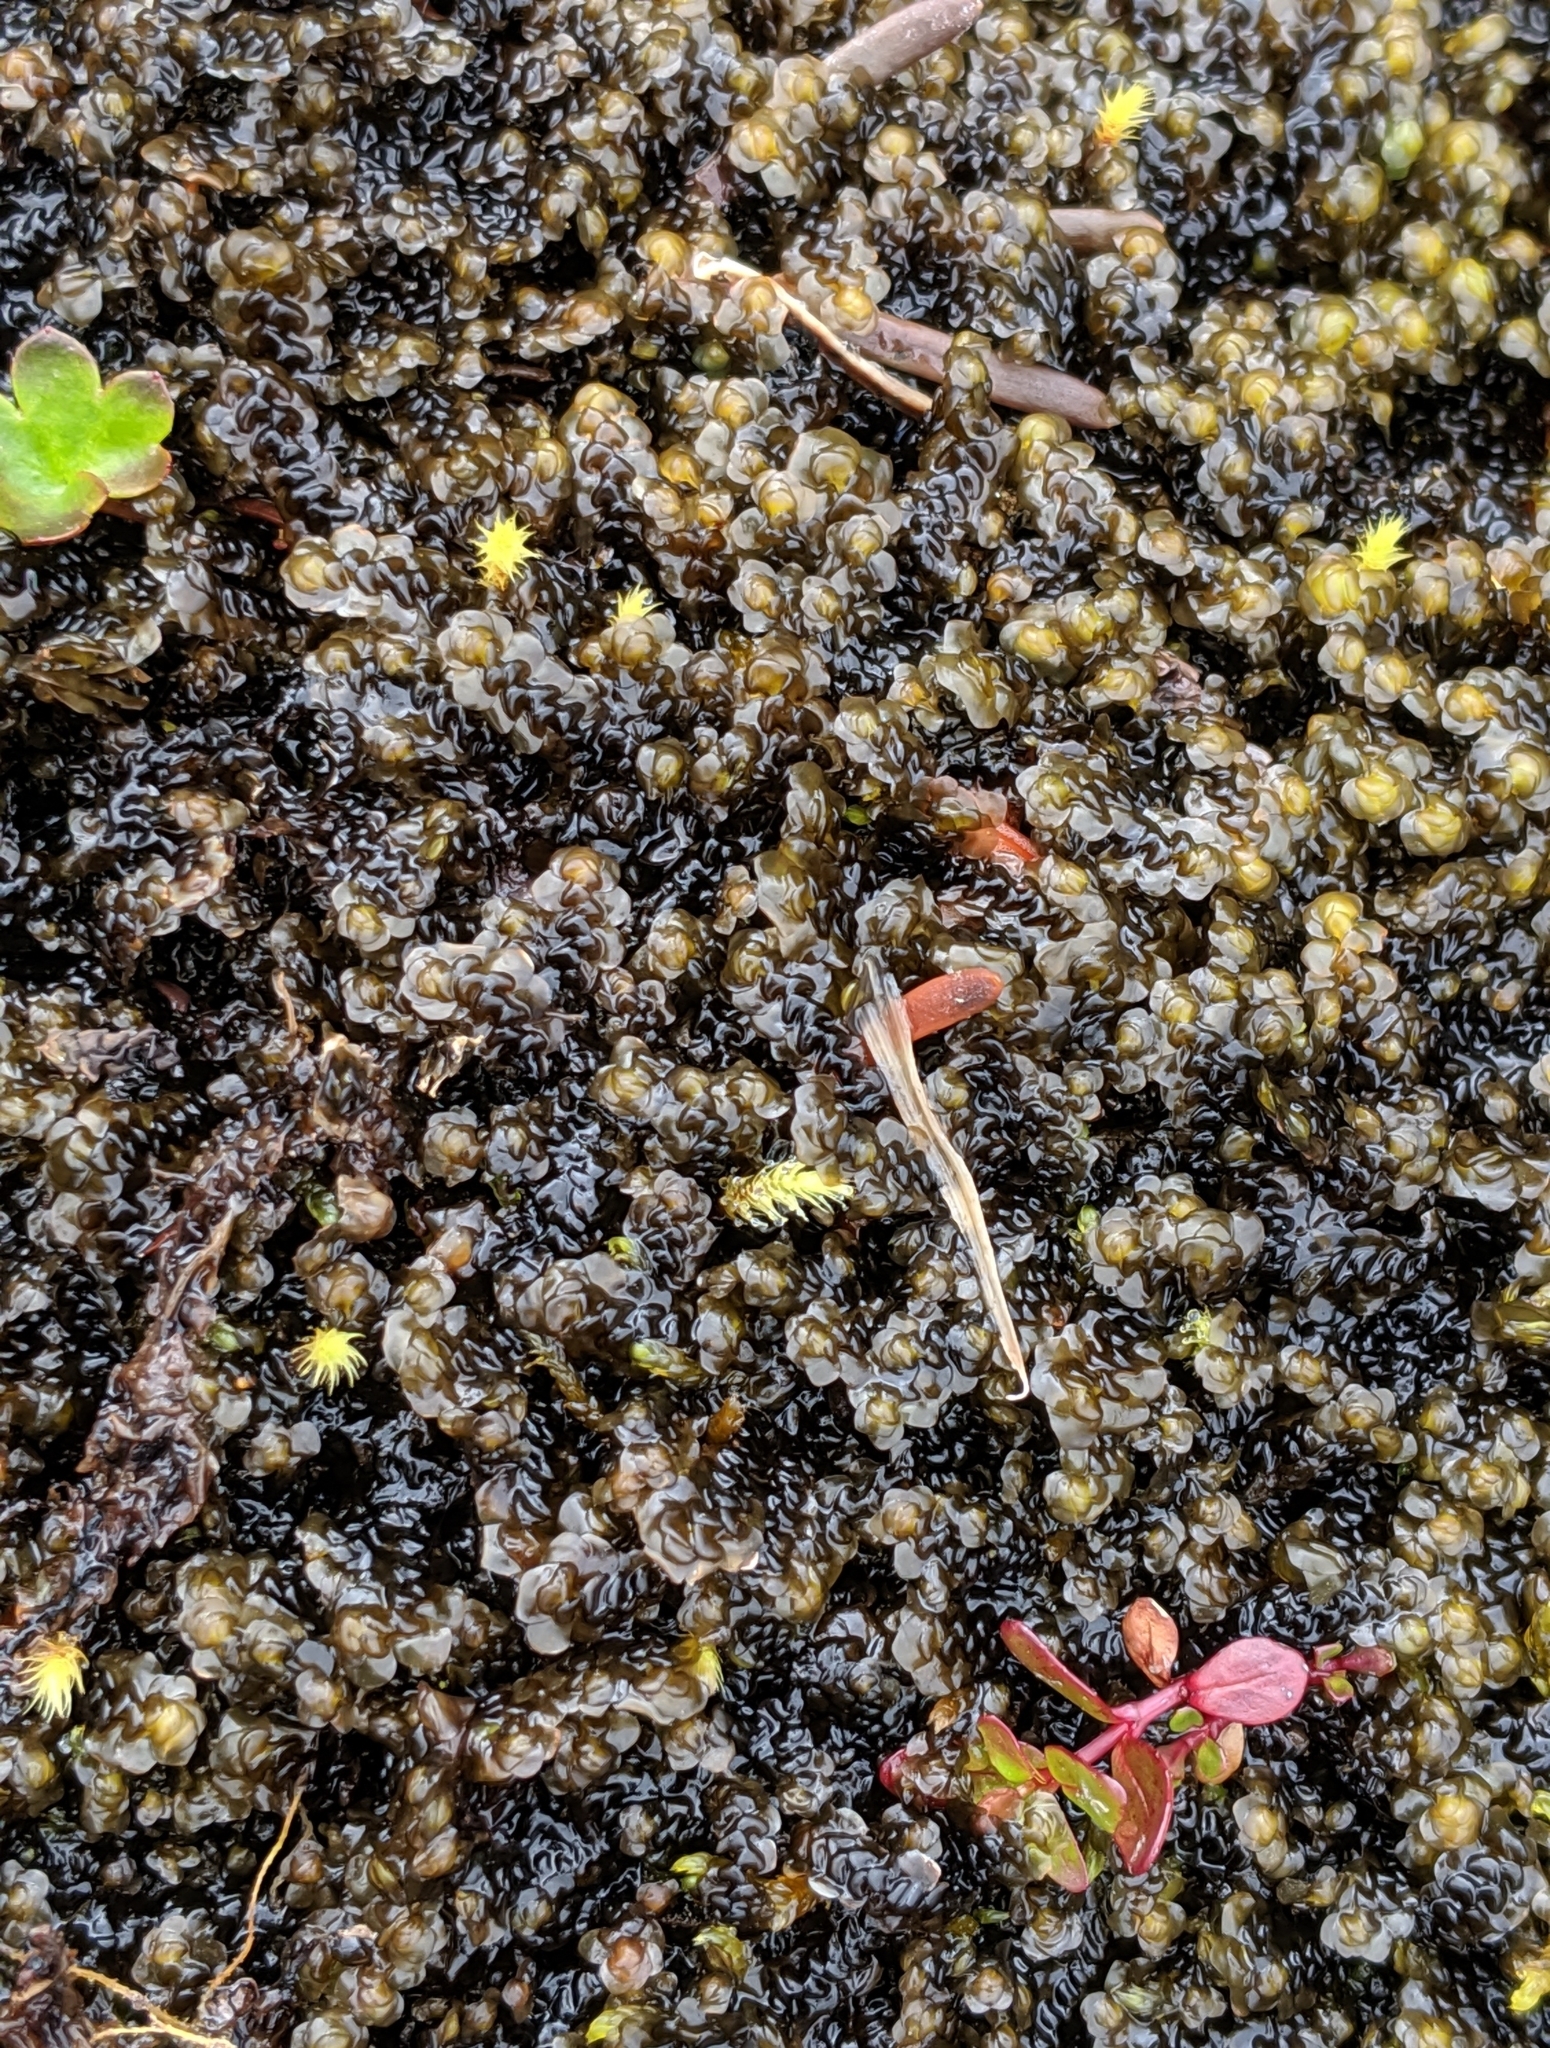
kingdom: Plantae
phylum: Marchantiophyta
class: Jungermanniopsida
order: Jungermanniales
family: Scapaniaceae
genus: Scapania
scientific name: Scapania undulata
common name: Water earwort
